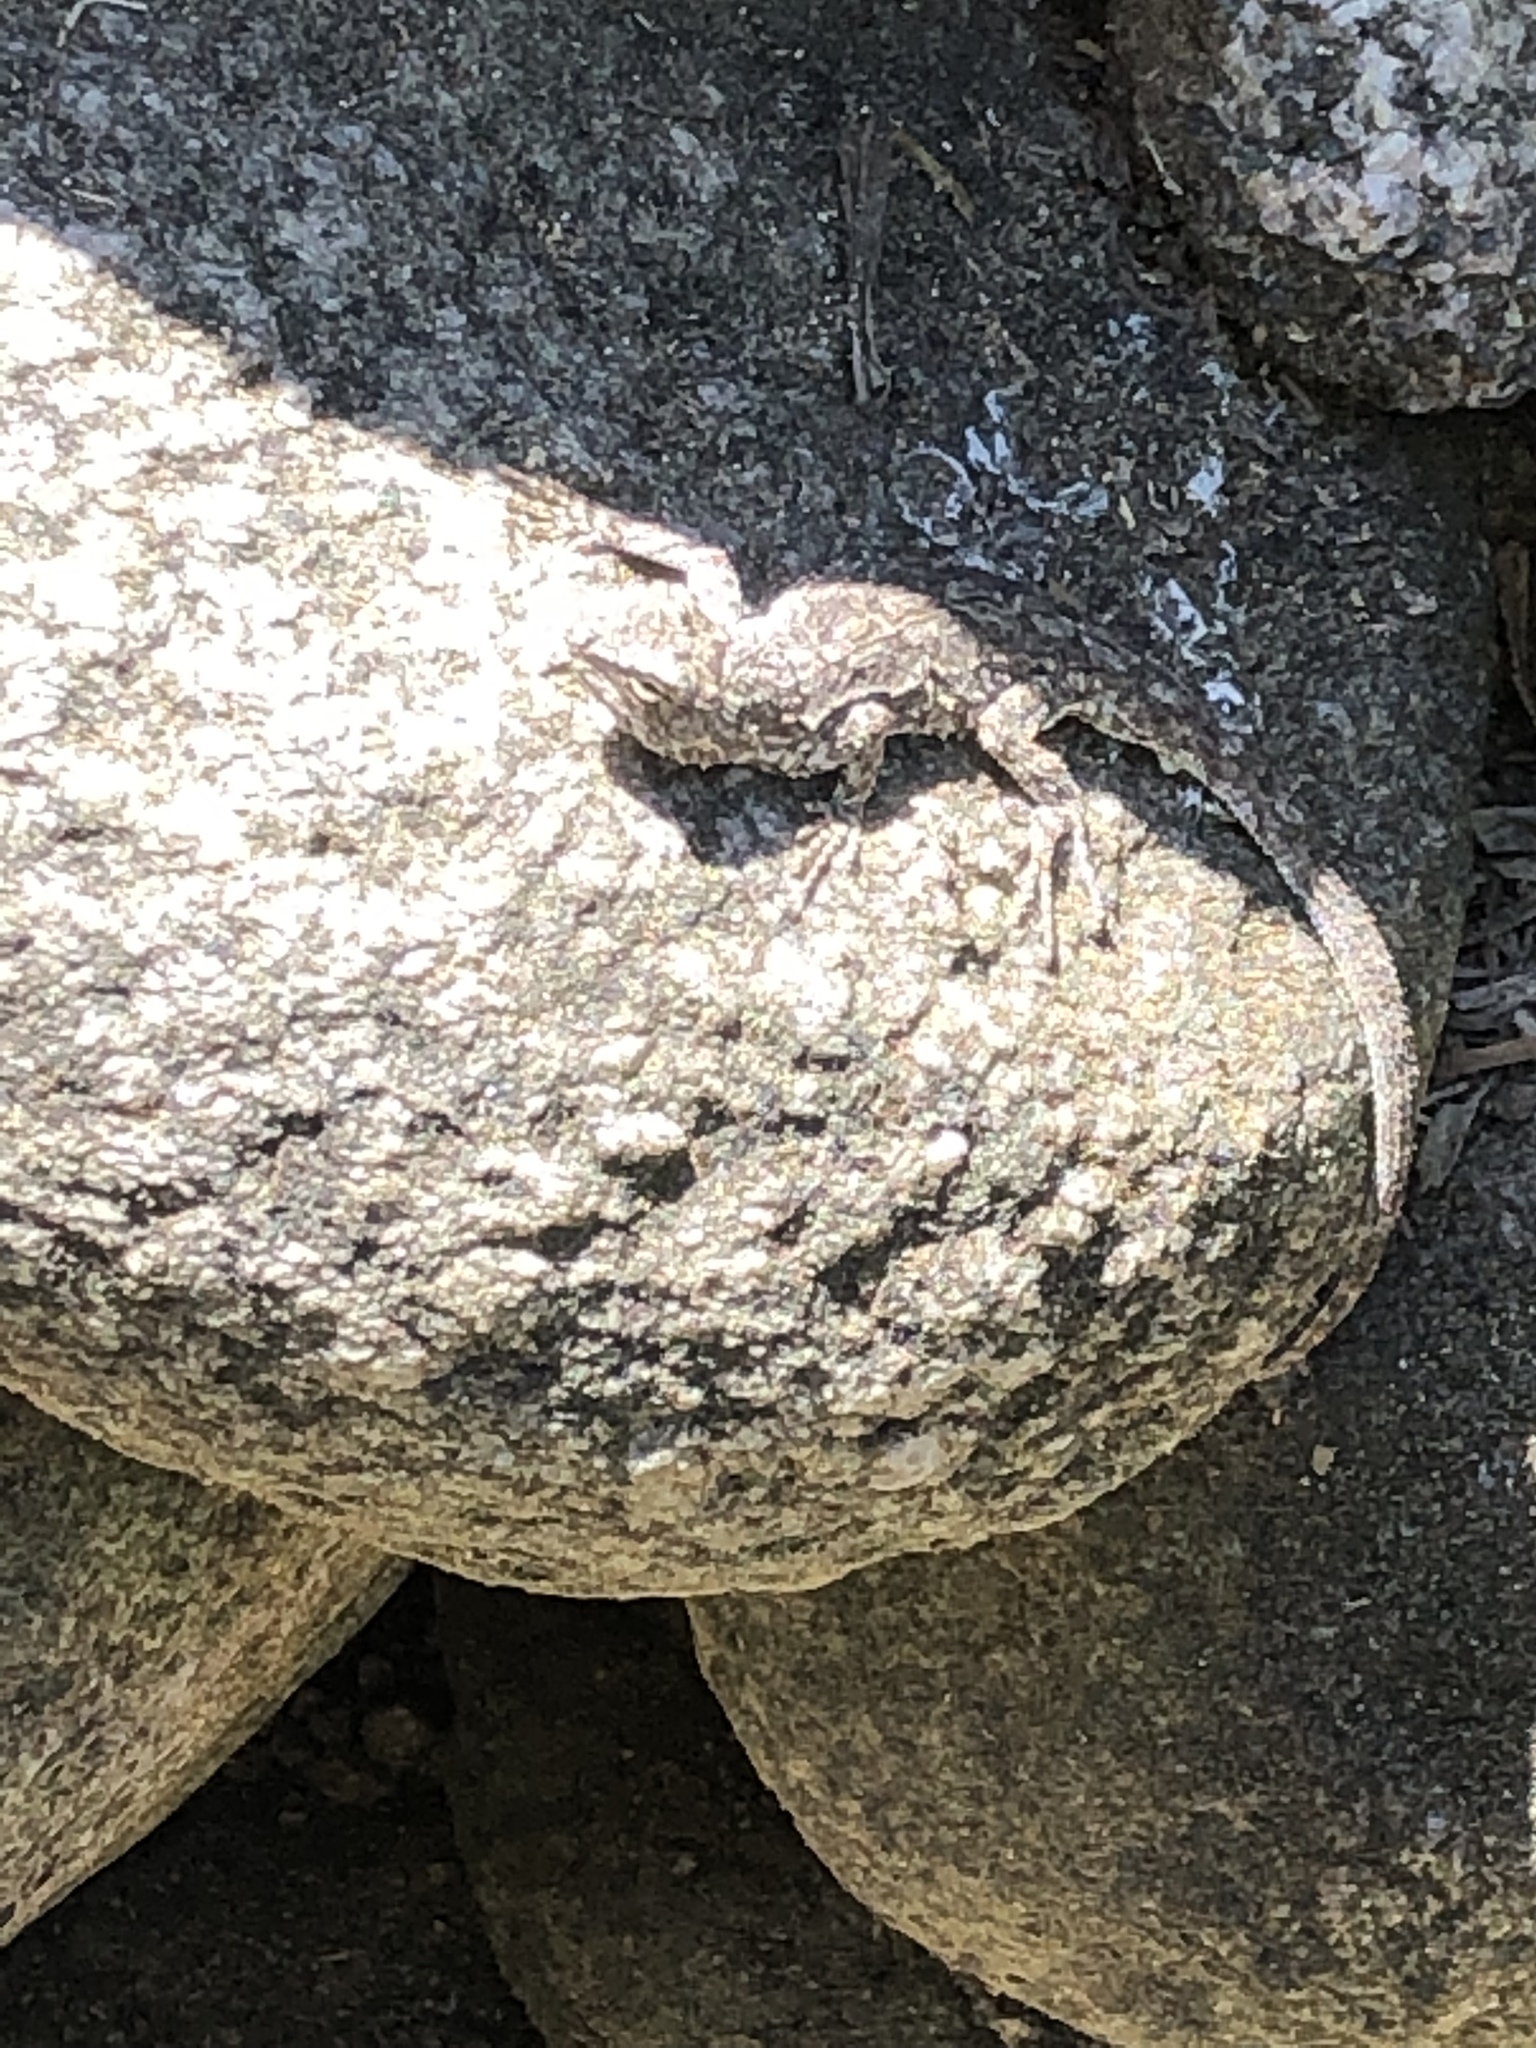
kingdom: Animalia
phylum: Chordata
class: Squamata
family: Phrynosomatidae
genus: Urosaurus
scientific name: Urosaurus bicarinatus
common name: Tropical tree lizard
